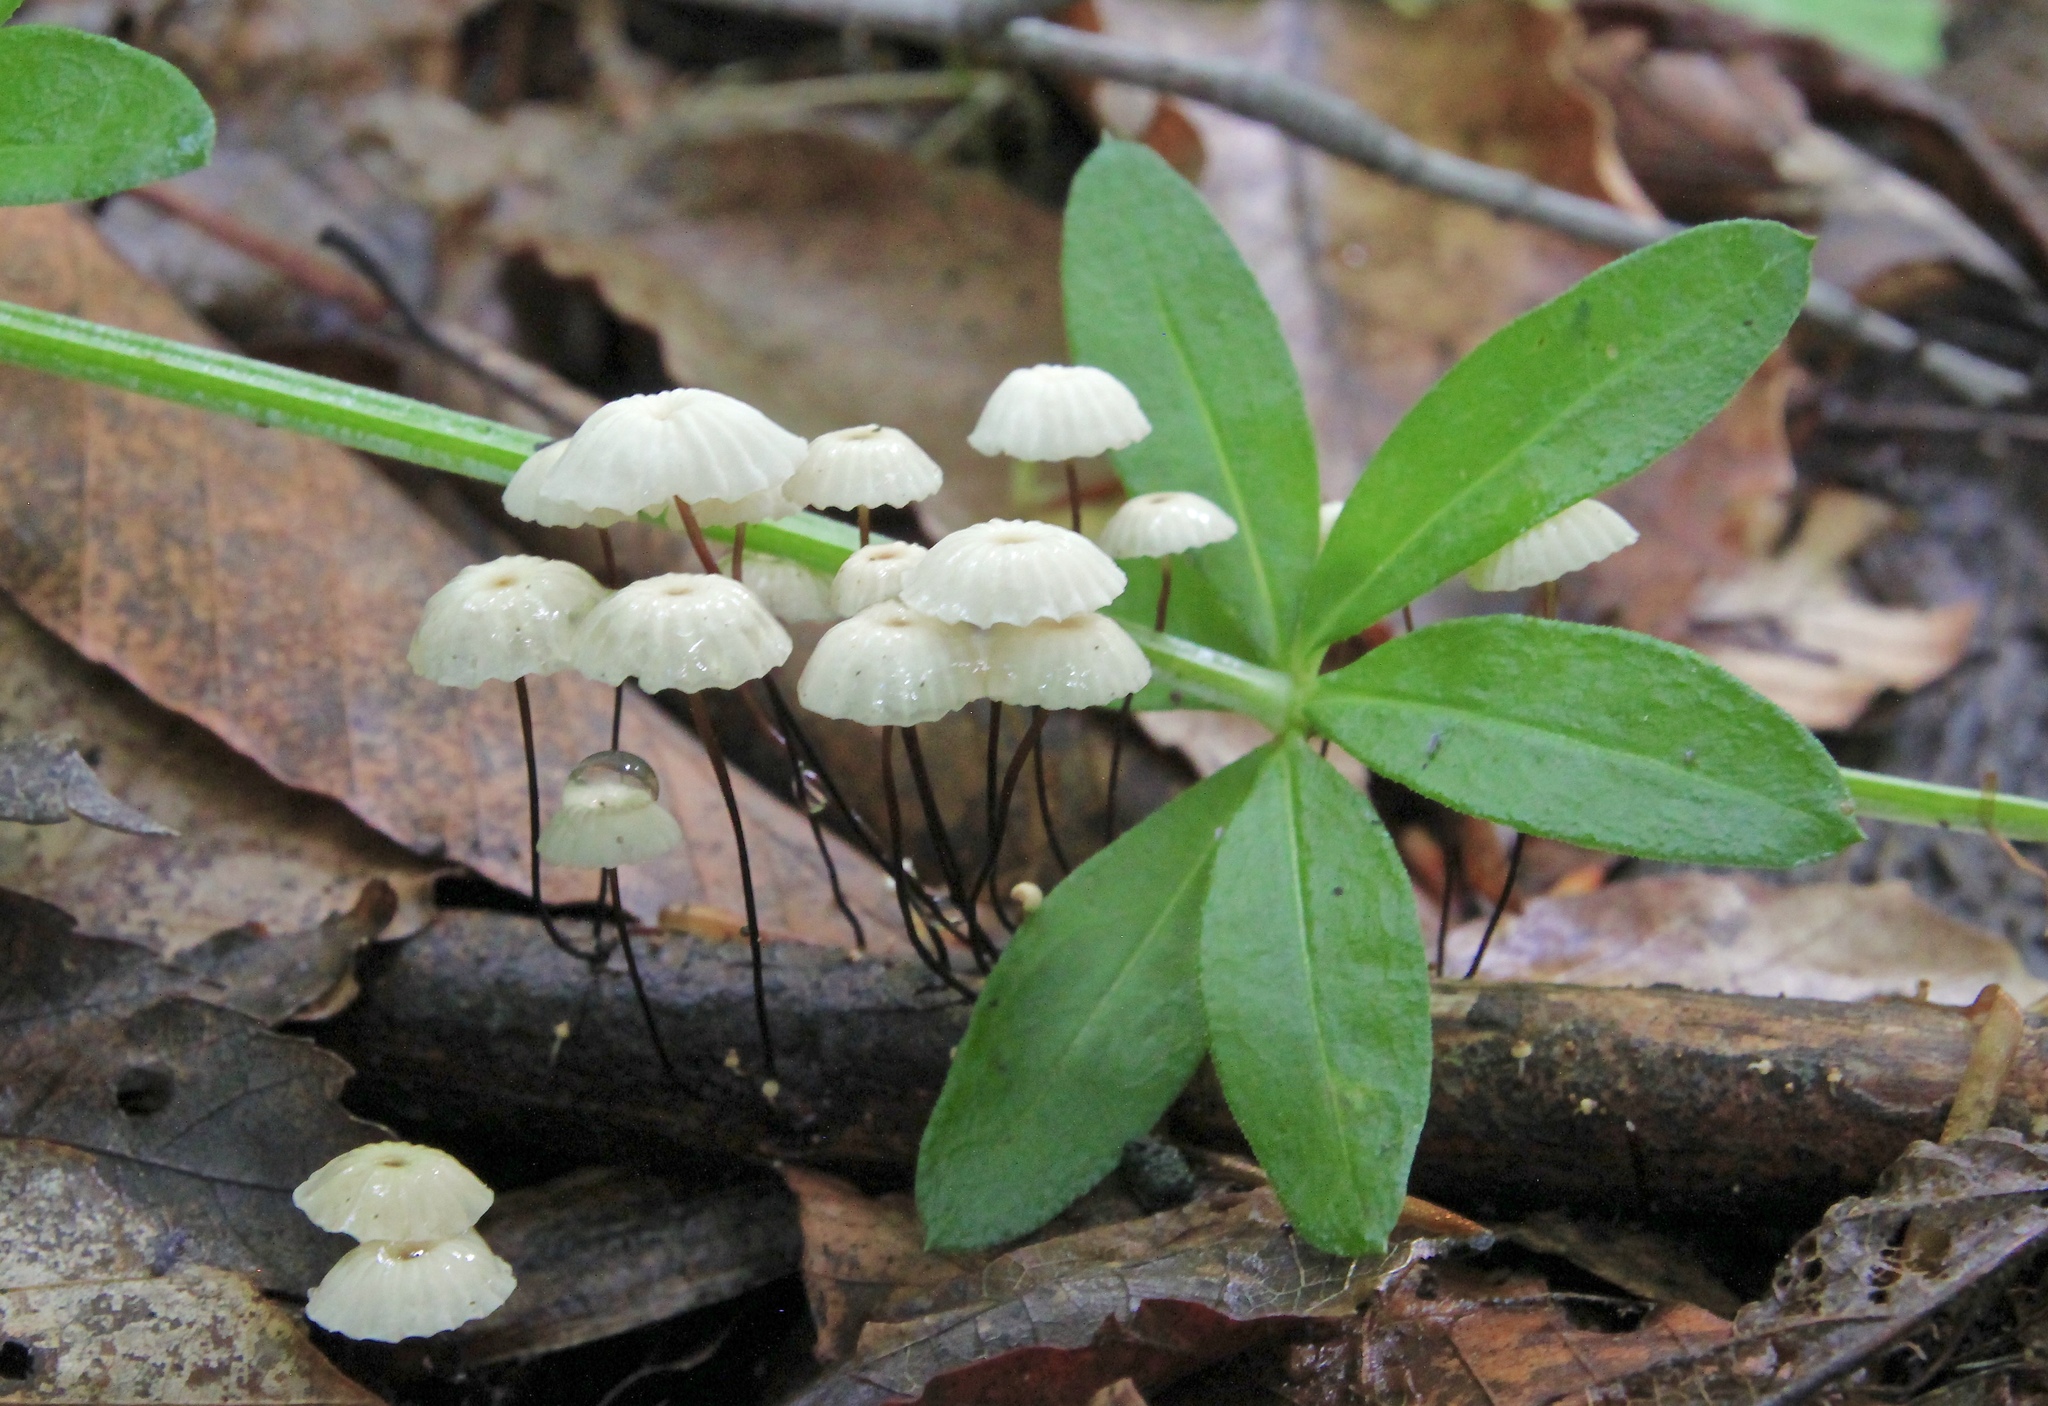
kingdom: Fungi
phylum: Basidiomycota
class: Agaricomycetes
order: Agaricales
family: Marasmiaceae
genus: Marasmius
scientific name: Marasmius rotula
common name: Collared parachute
